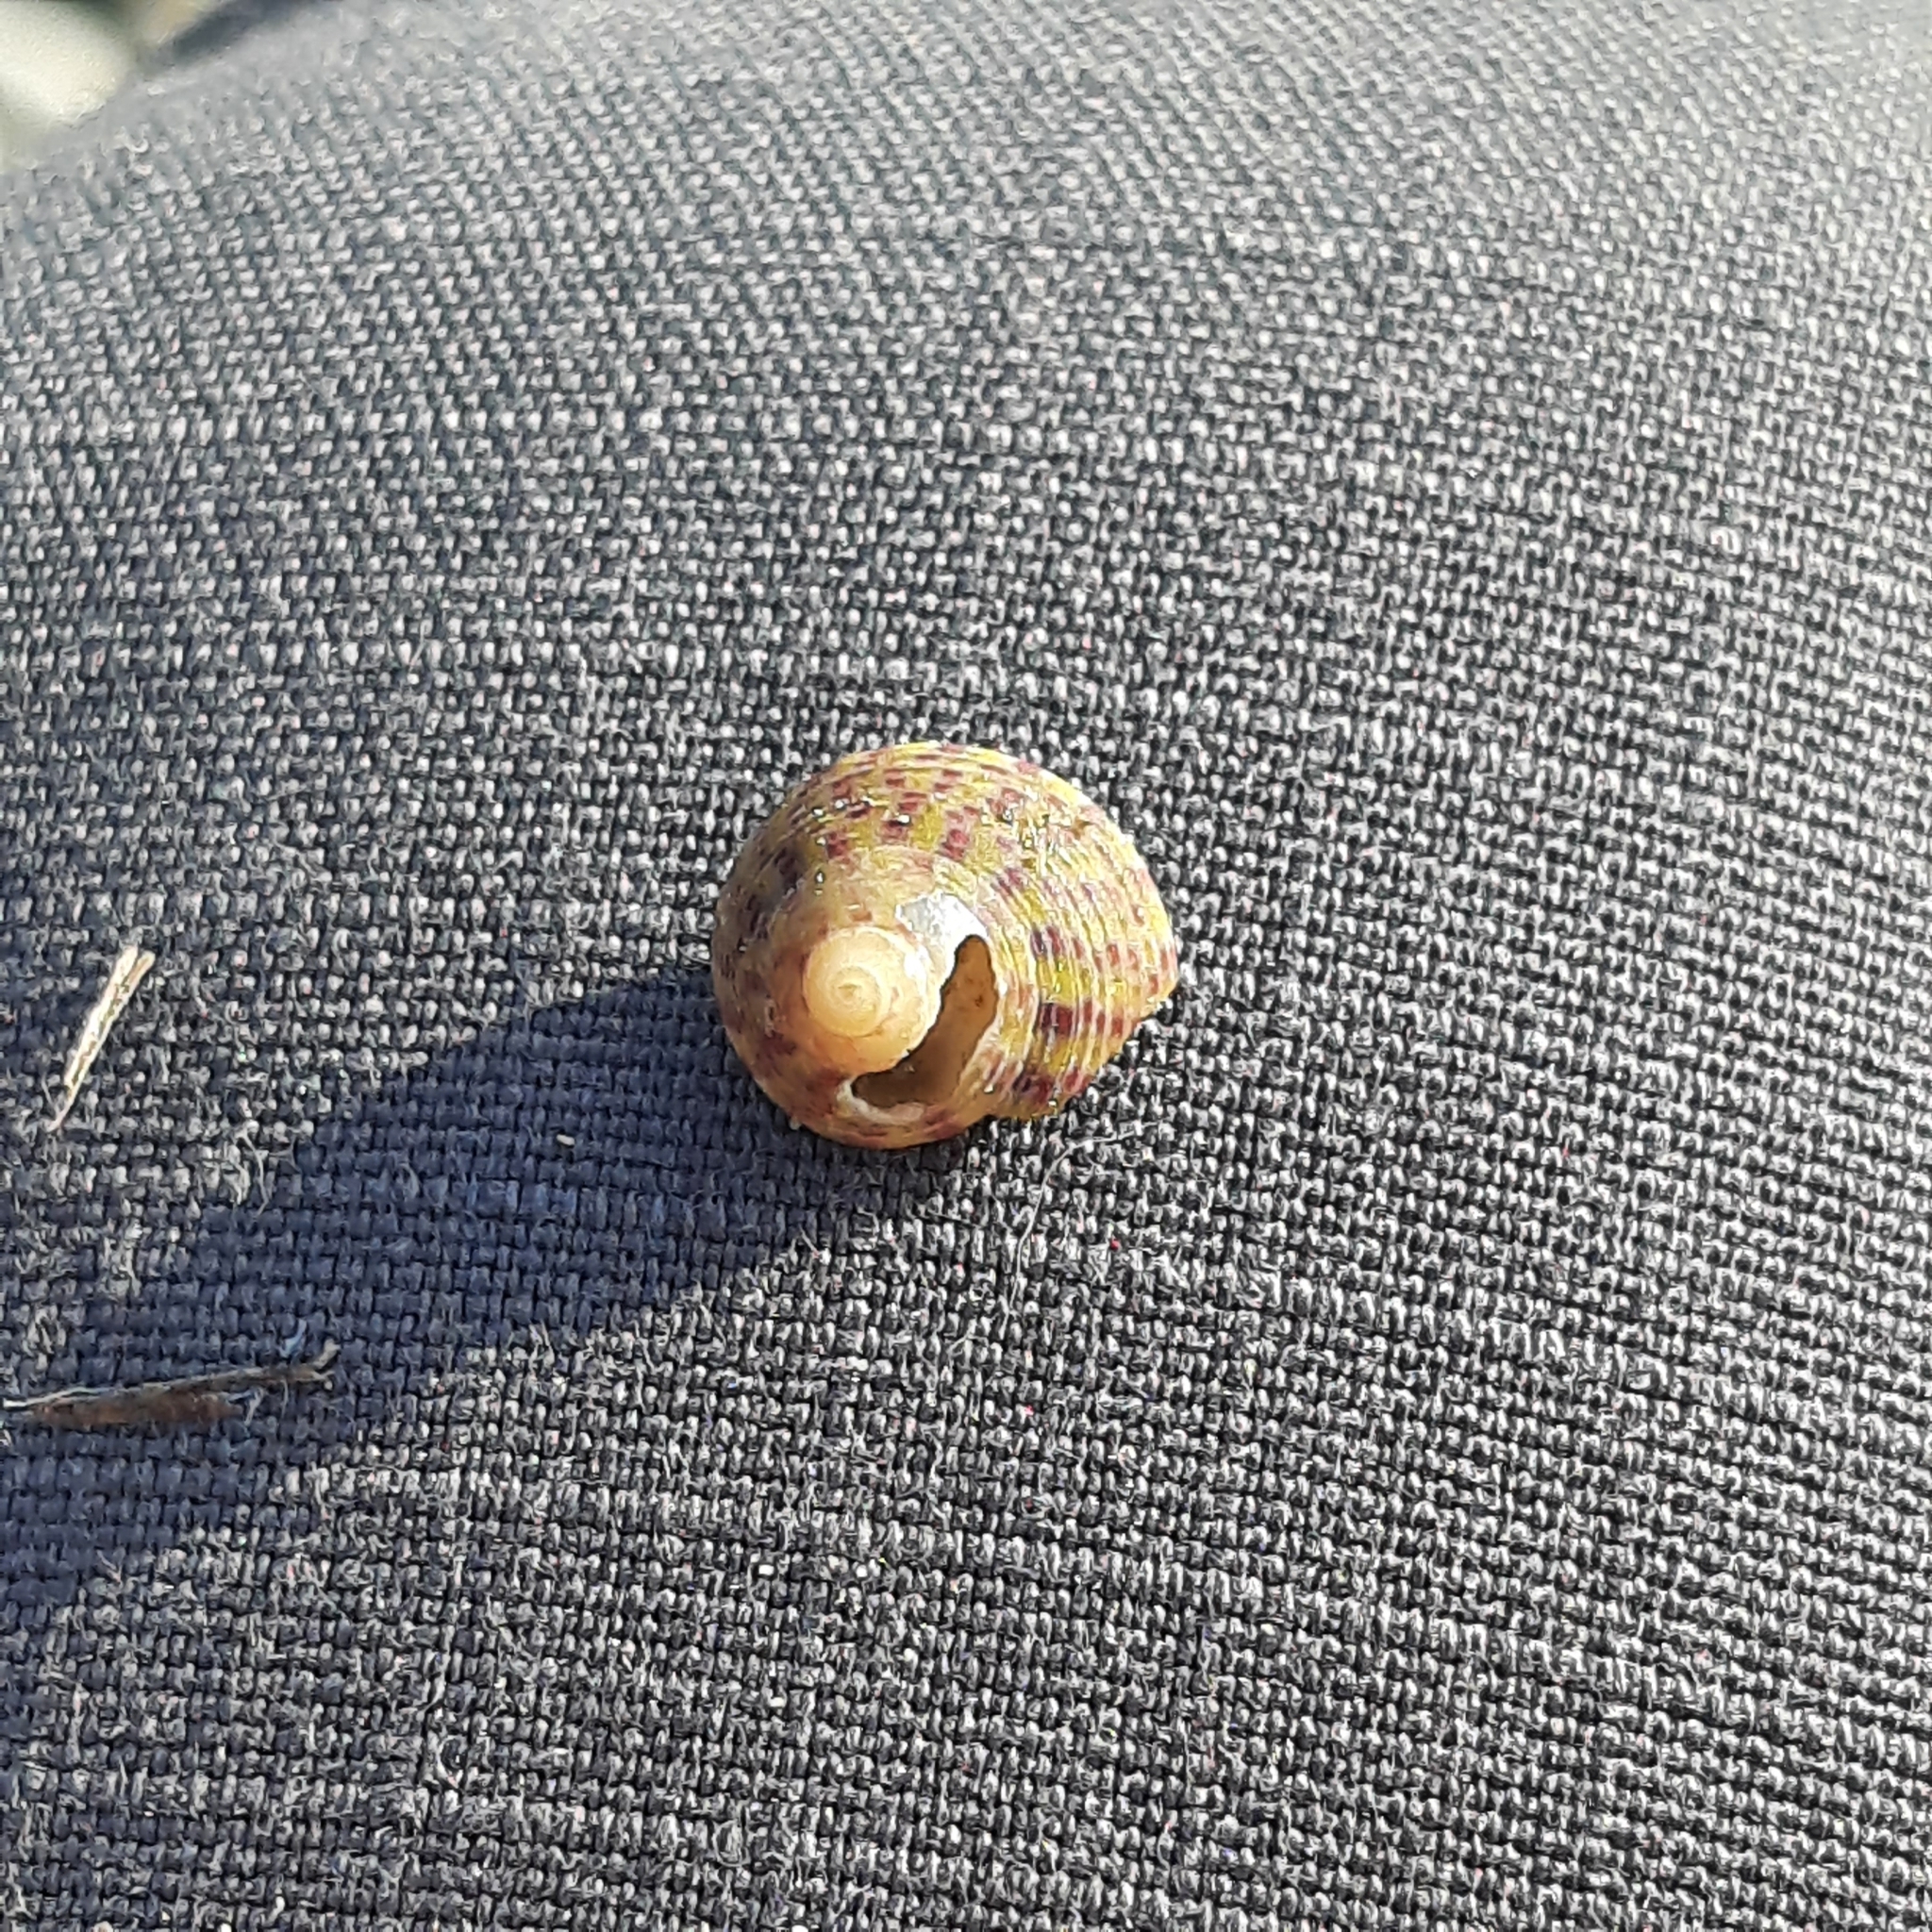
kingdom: Animalia
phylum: Mollusca
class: Gastropoda
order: Trochida
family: Trochidae
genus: Steromphala
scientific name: Steromphala rarilineata
